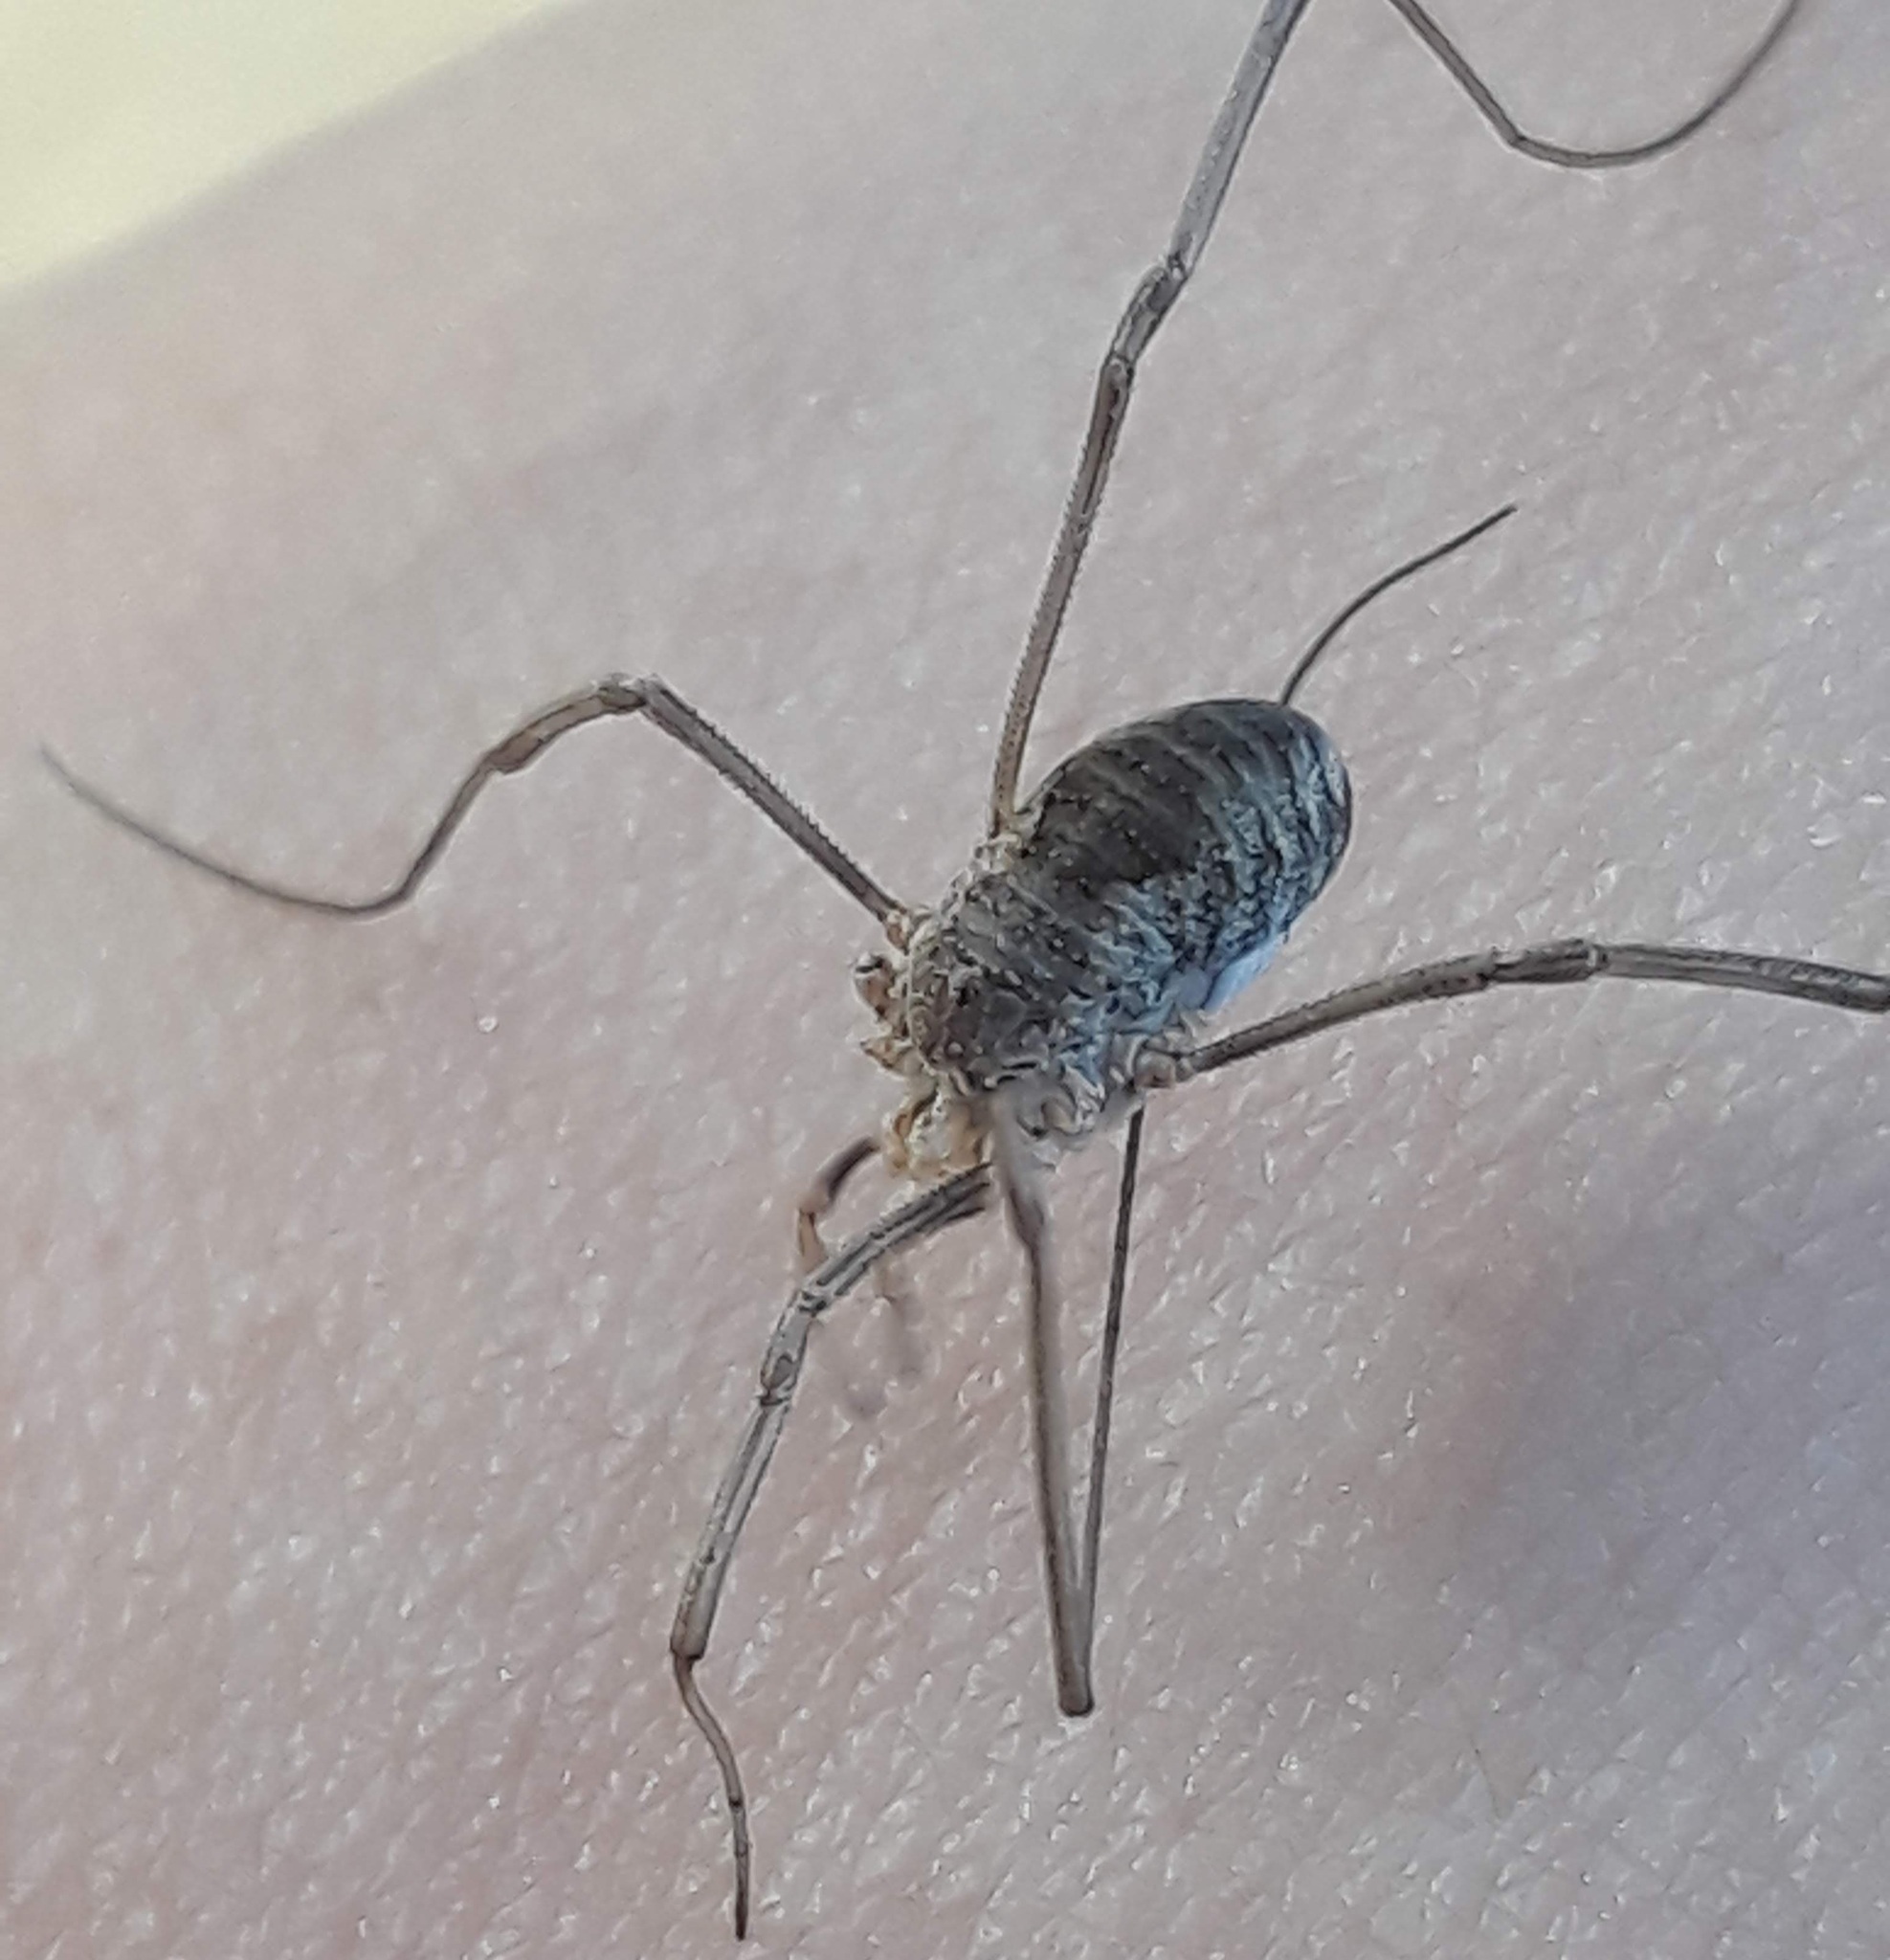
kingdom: Animalia
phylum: Arthropoda
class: Arachnida
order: Opiliones
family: Phalangiidae
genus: Phalangium
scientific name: Phalangium opilio
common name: Daddy longleg
